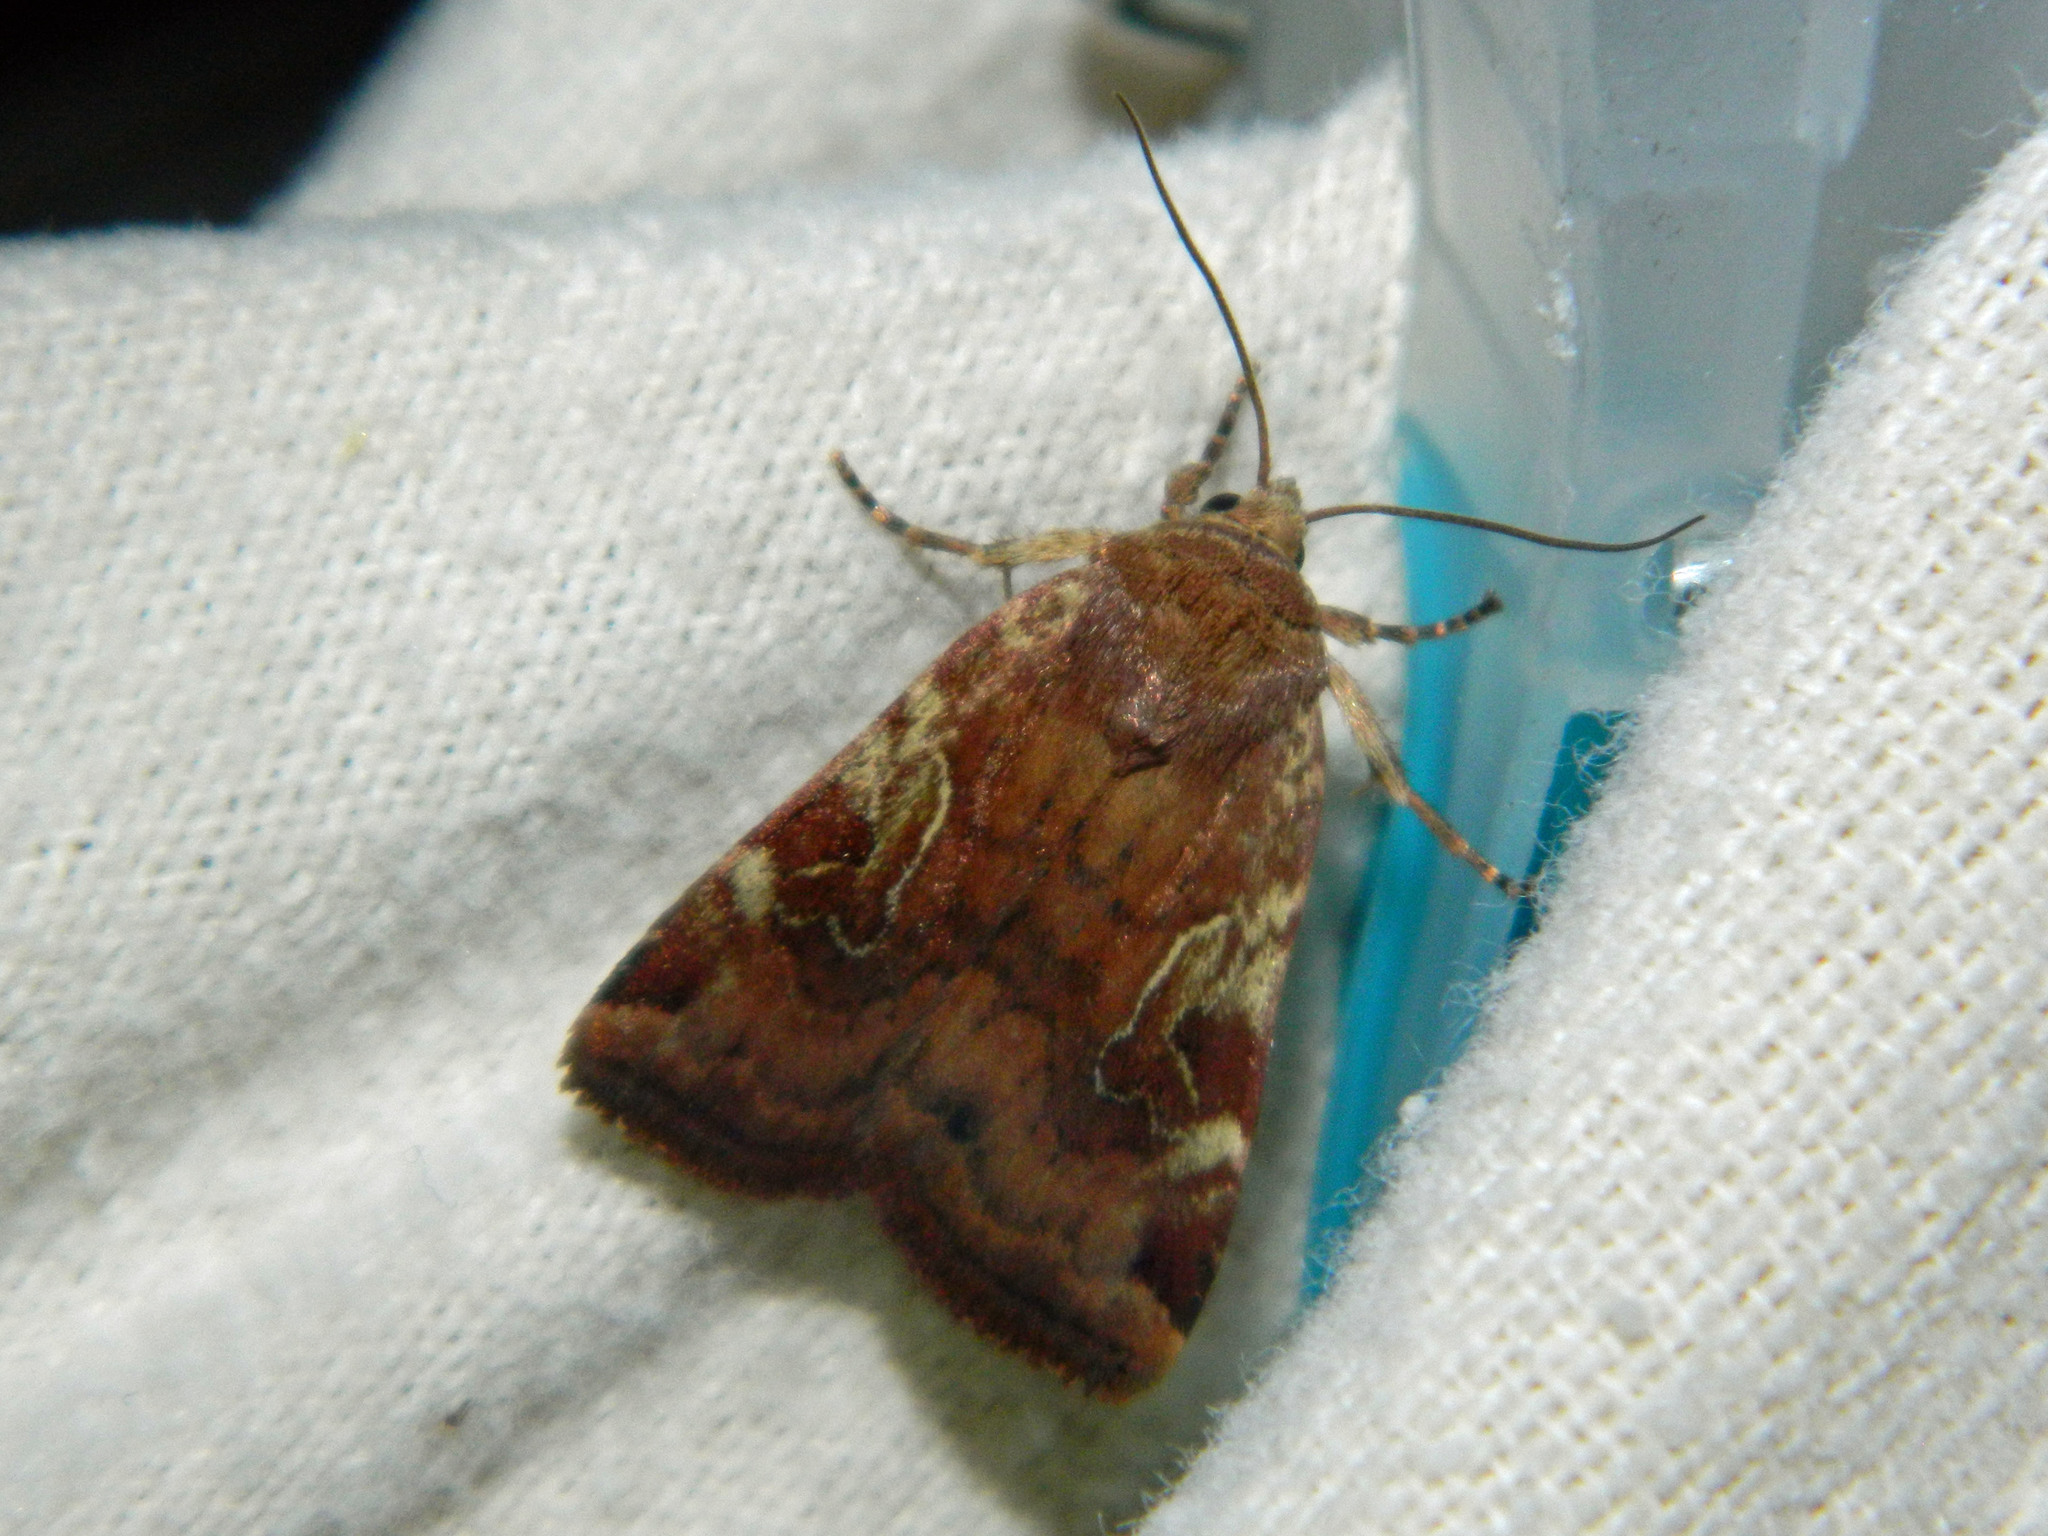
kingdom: Animalia
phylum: Arthropoda
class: Insecta
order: Lepidoptera
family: Noctuidae
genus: Cryptocala
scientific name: Cryptocala acadiensis
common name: Catocaline dart
